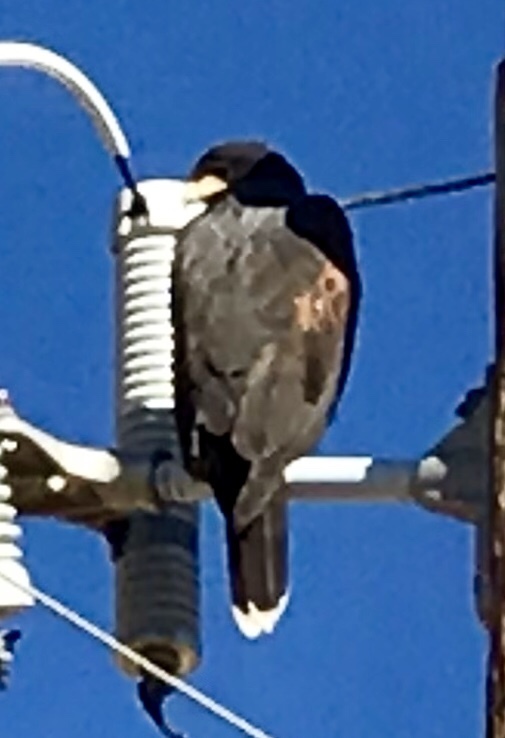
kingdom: Animalia
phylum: Chordata
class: Aves
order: Accipitriformes
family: Accipitridae
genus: Parabuteo
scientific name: Parabuteo unicinctus
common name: Harris's hawk
